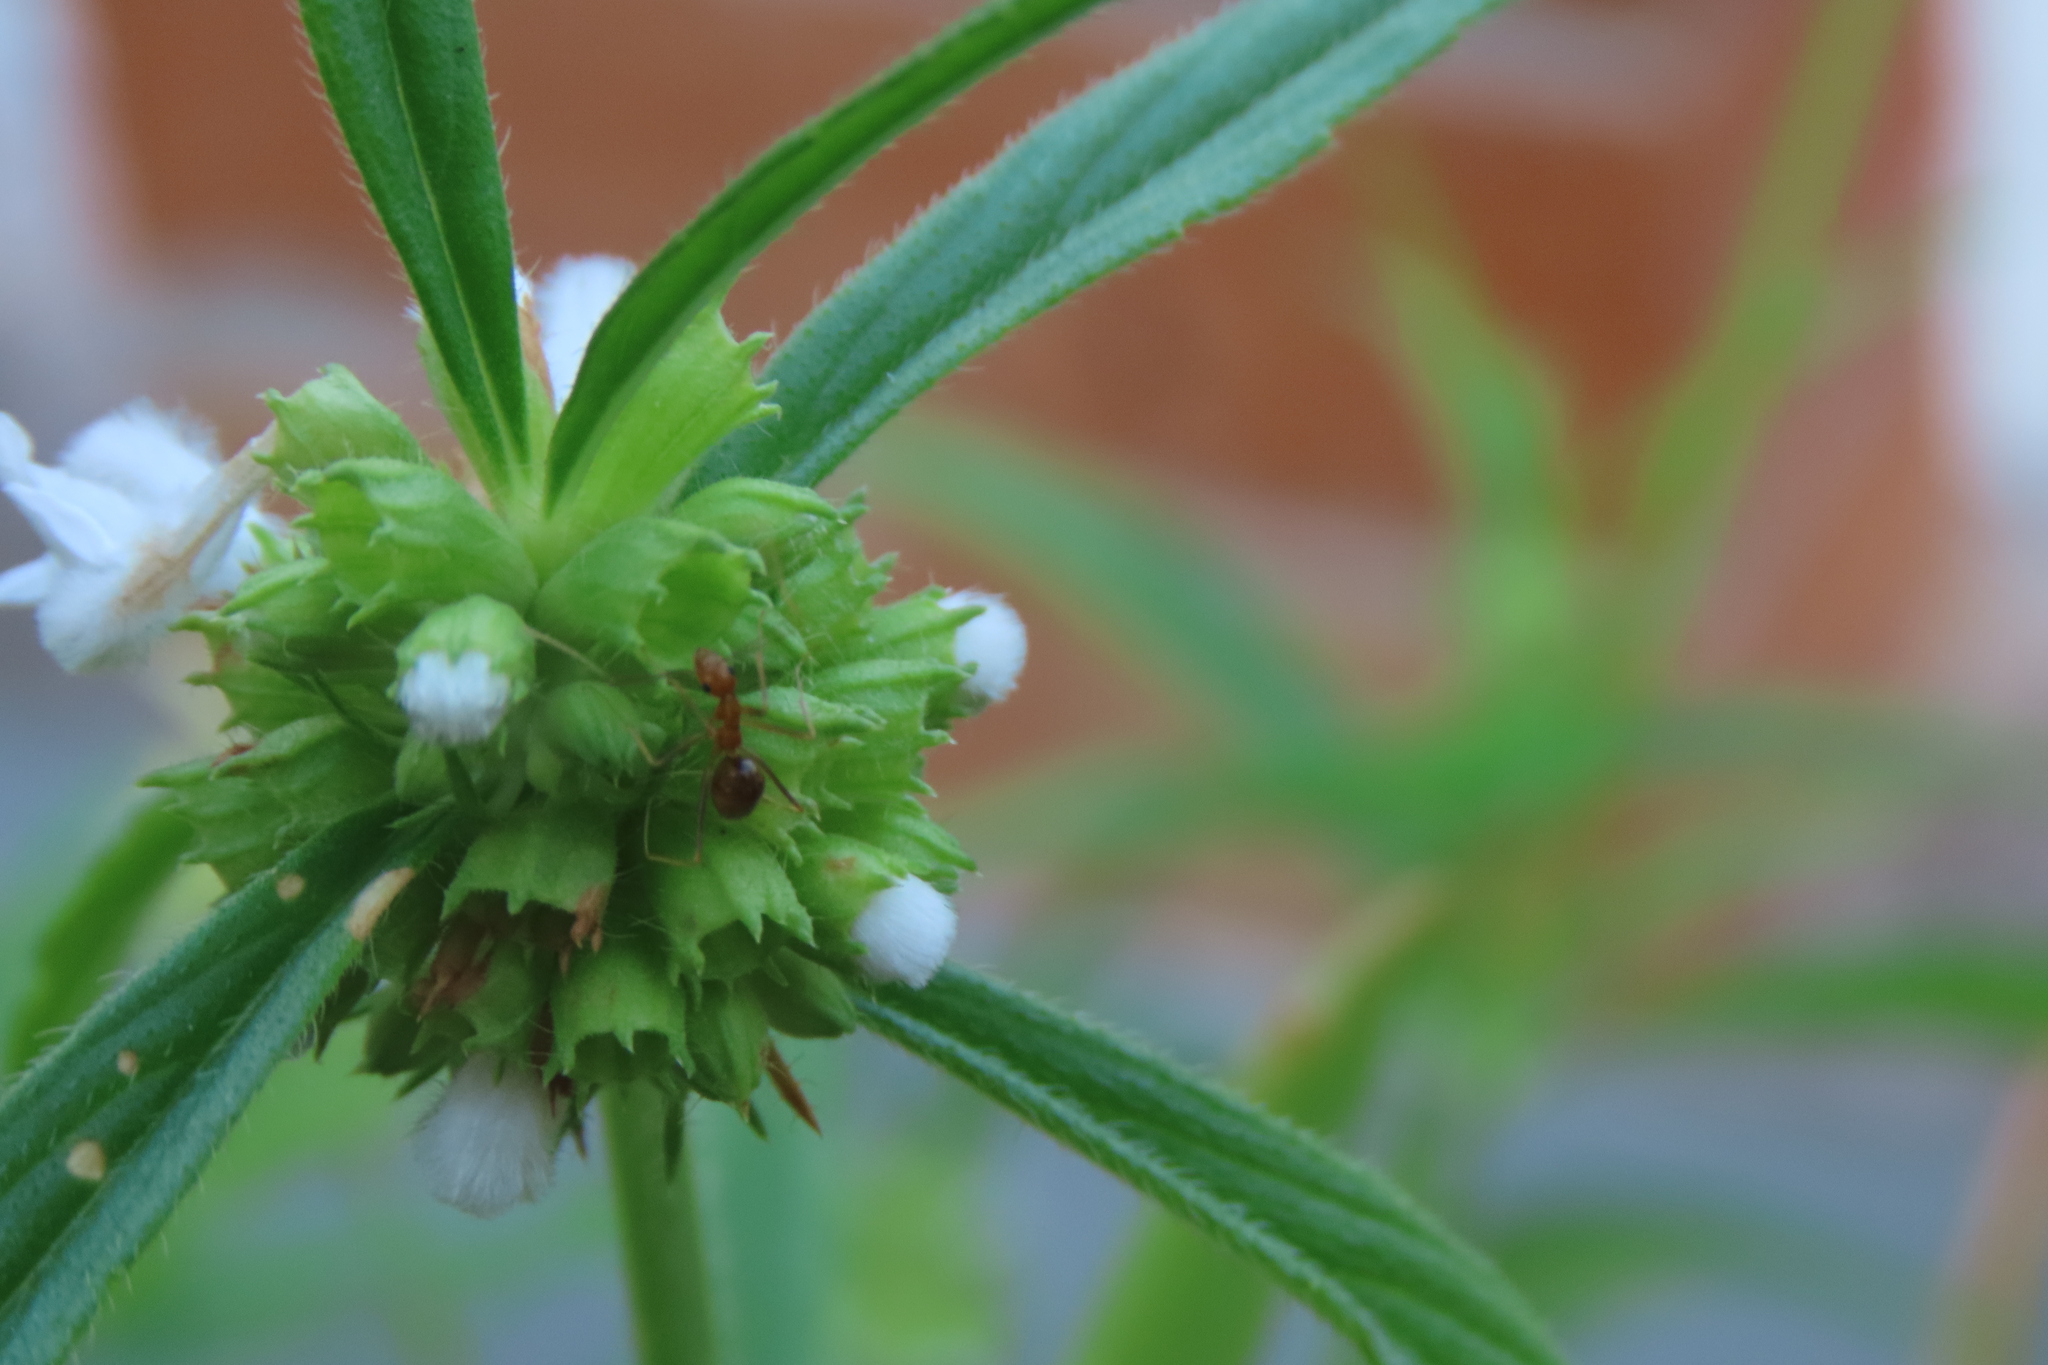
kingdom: Animalia
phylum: Arthropoda
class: Insecta
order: Hymenoptera
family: Formicidae
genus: Anoplolepis
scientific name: Anoplolepis gracilipes
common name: Ant
